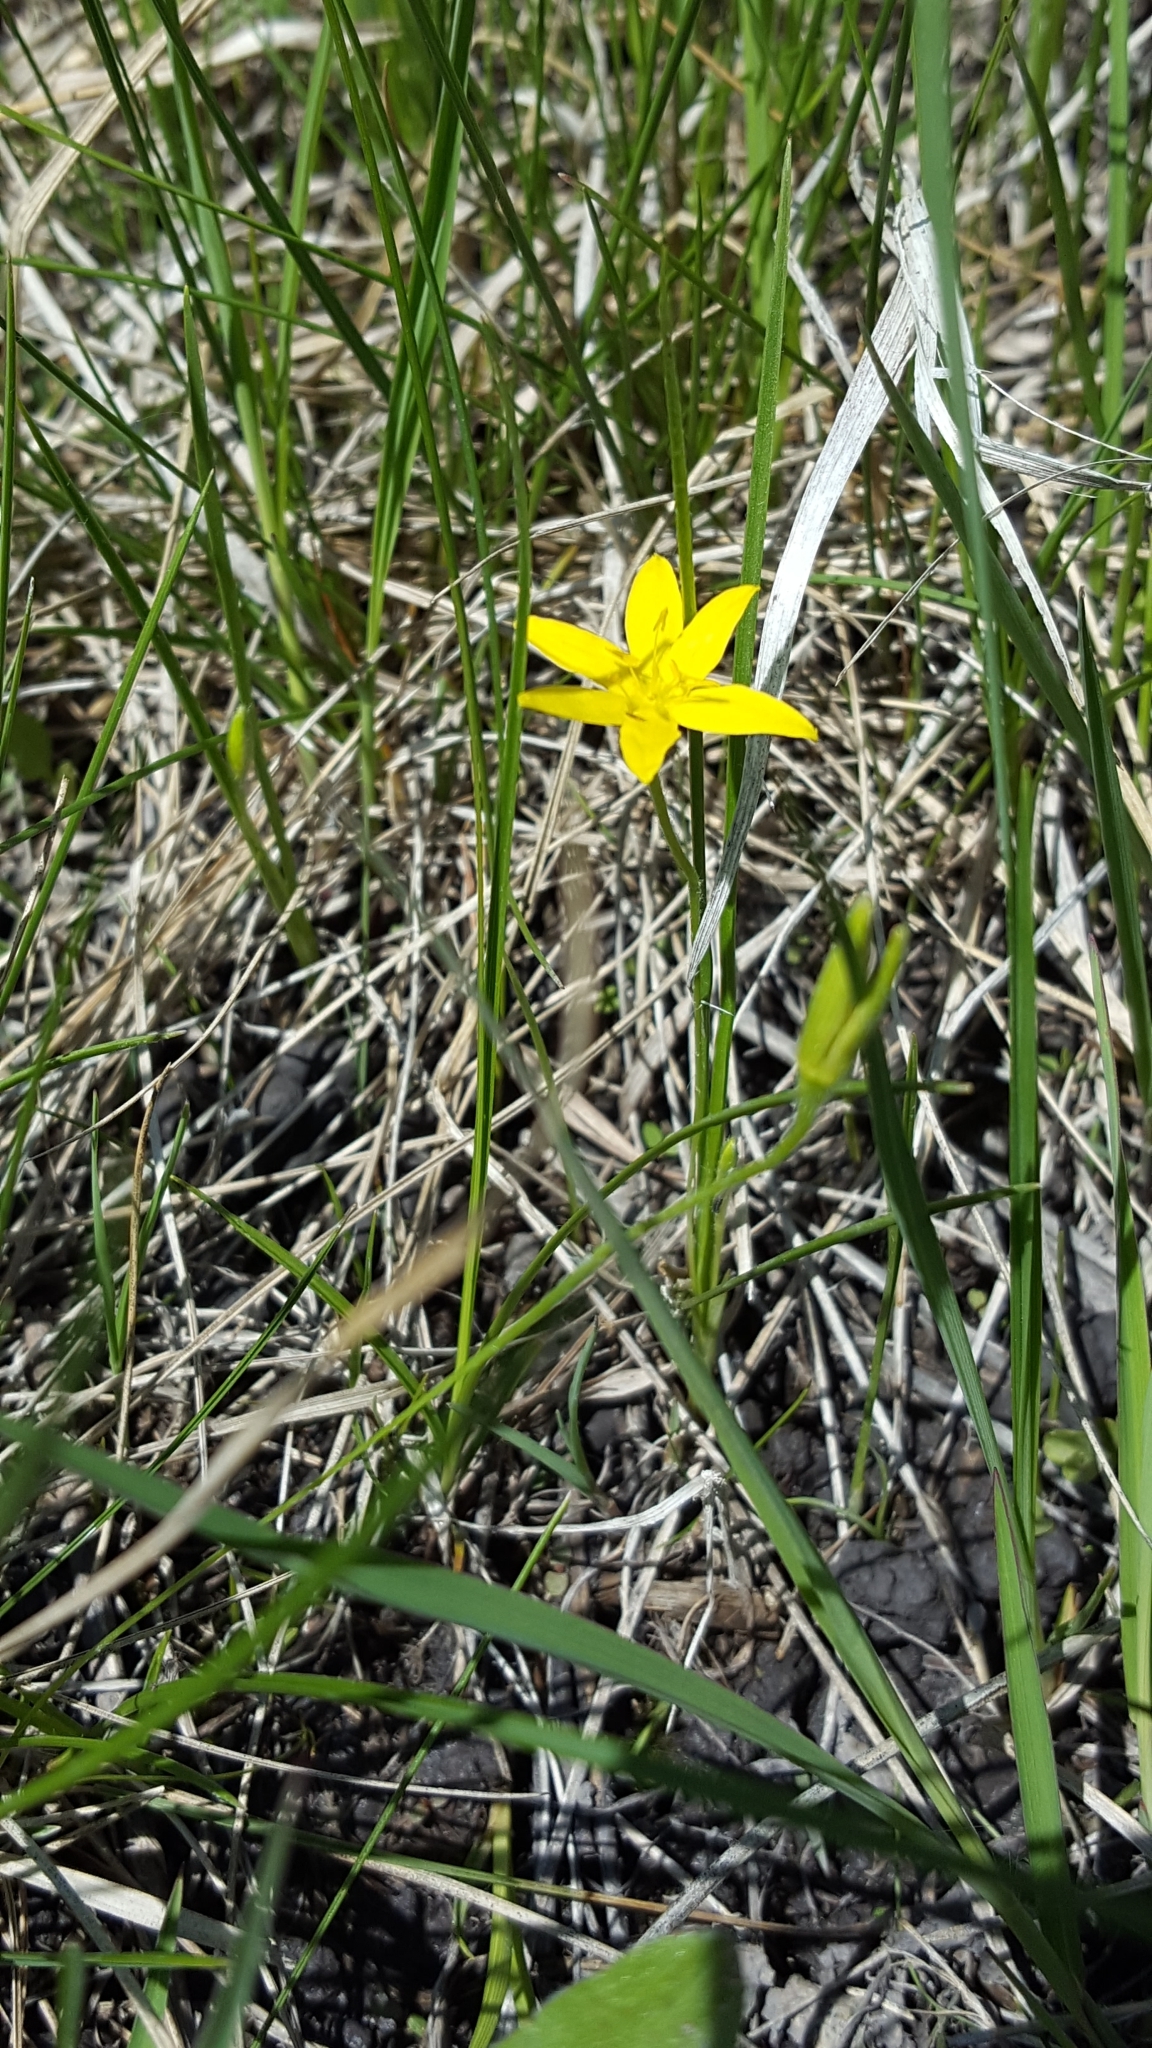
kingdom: Plantae
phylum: Tracheophyta
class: Liliopsida
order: Asparagales
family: Hypoxidaceae
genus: Hypoxis
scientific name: Hypoxis hirsuta
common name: Common goldstar
